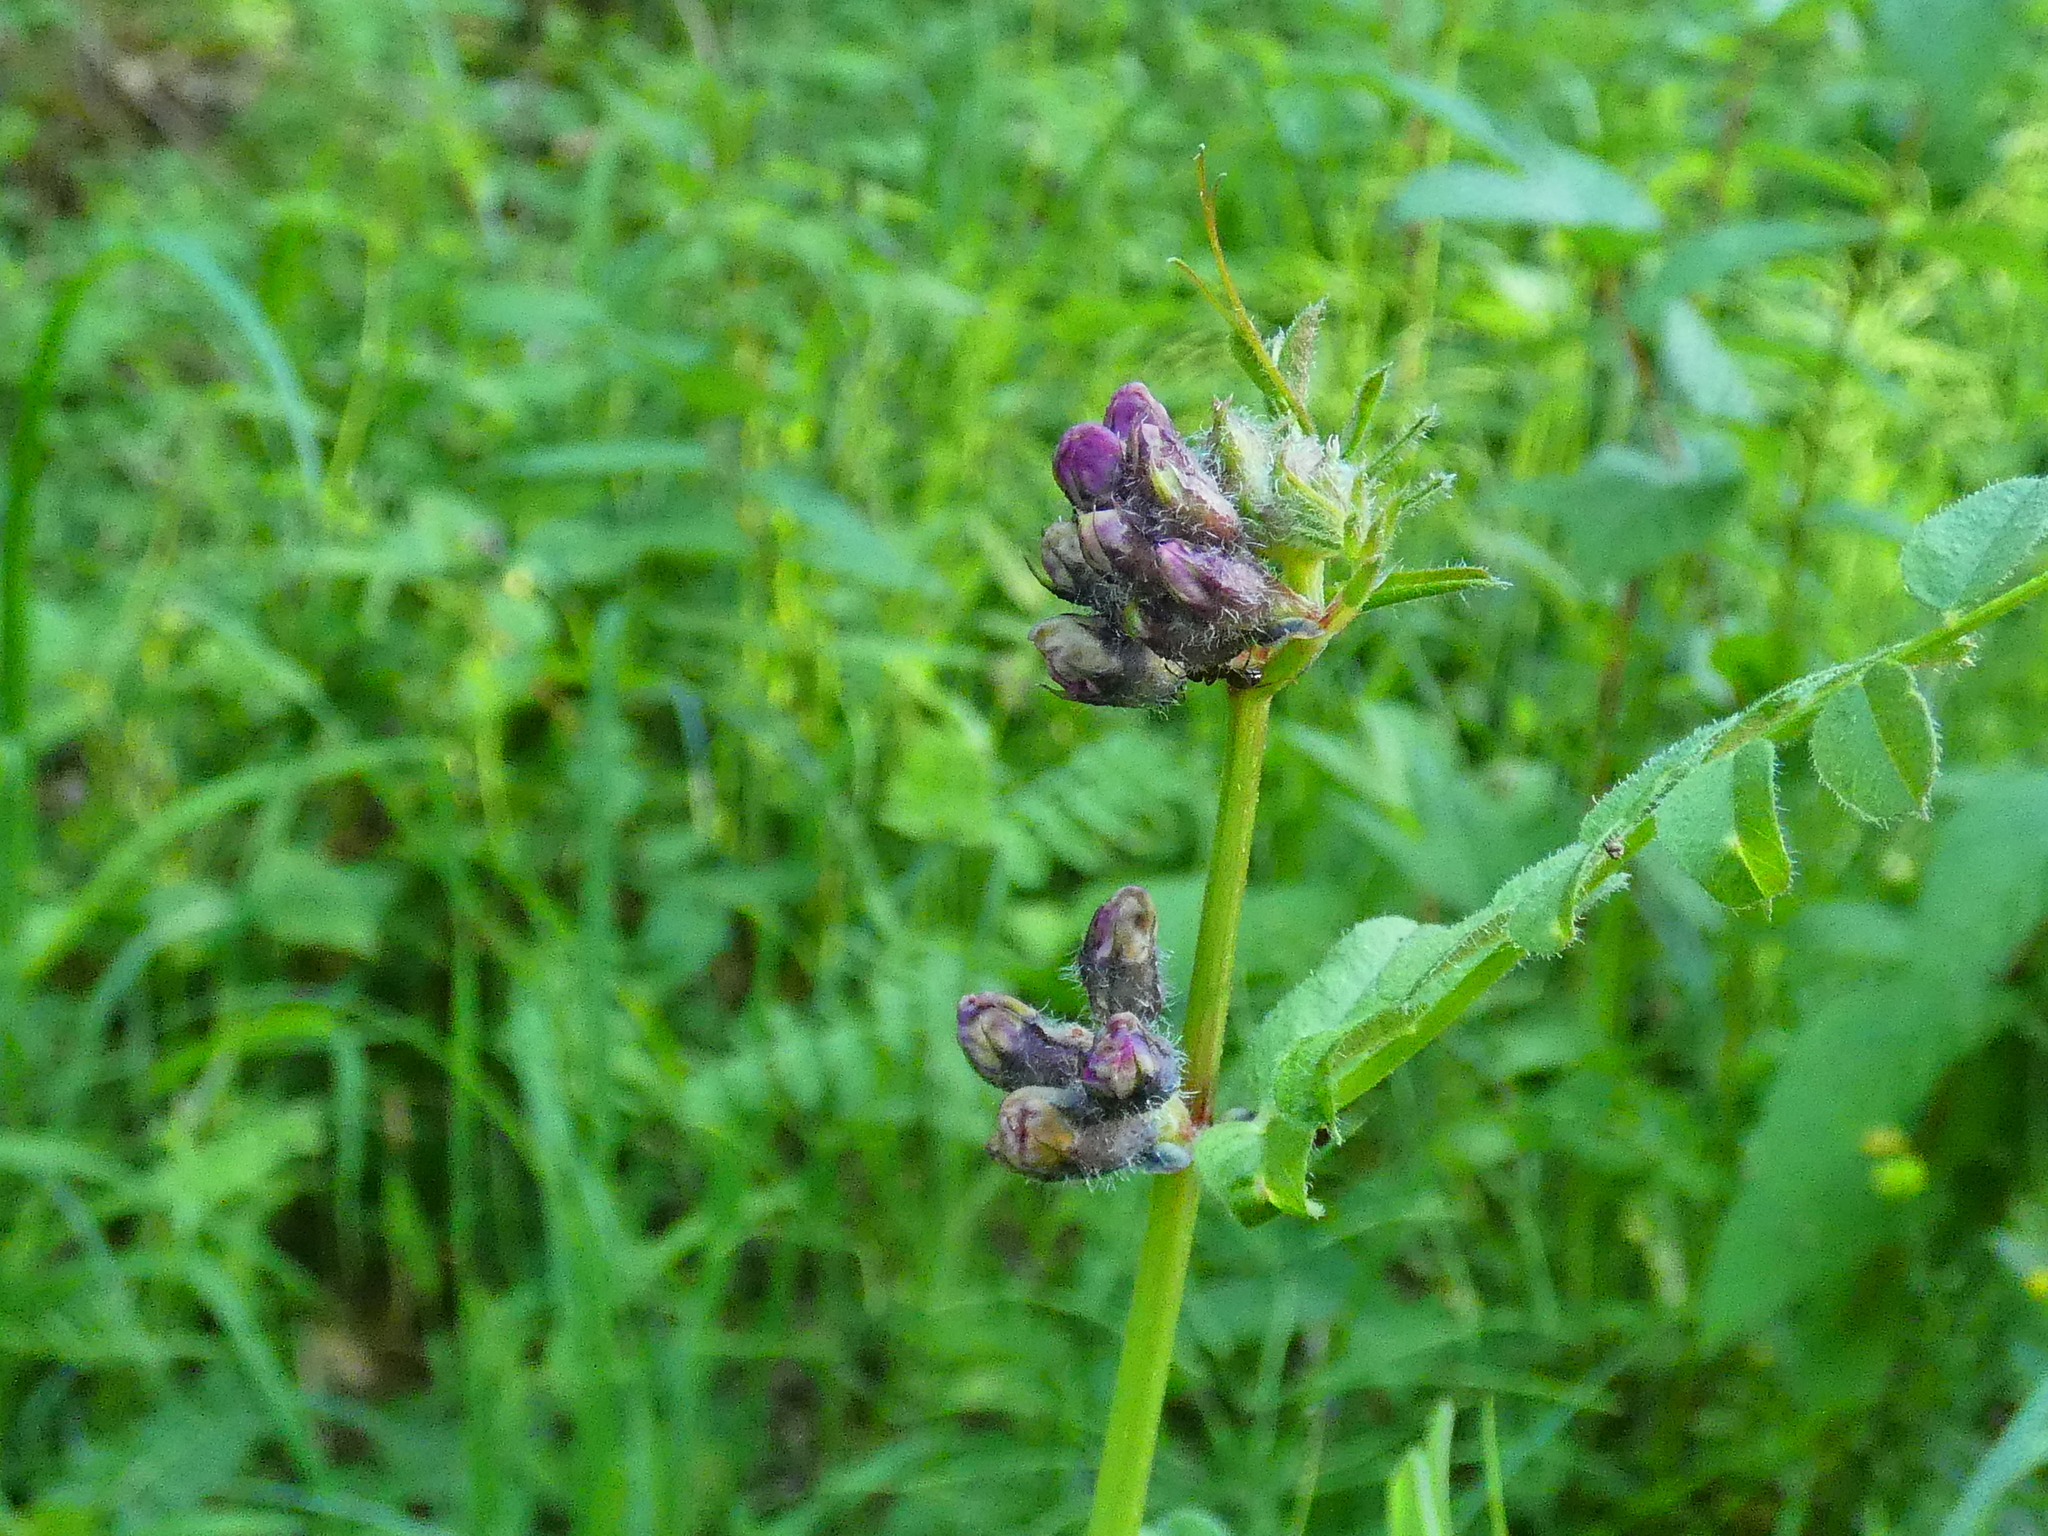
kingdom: Plantae
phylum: Tracheophyta
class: Magnoliopsida
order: Fabales
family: Fabaceae
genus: Vicia
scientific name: Vicia sepium
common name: Bush vetch
